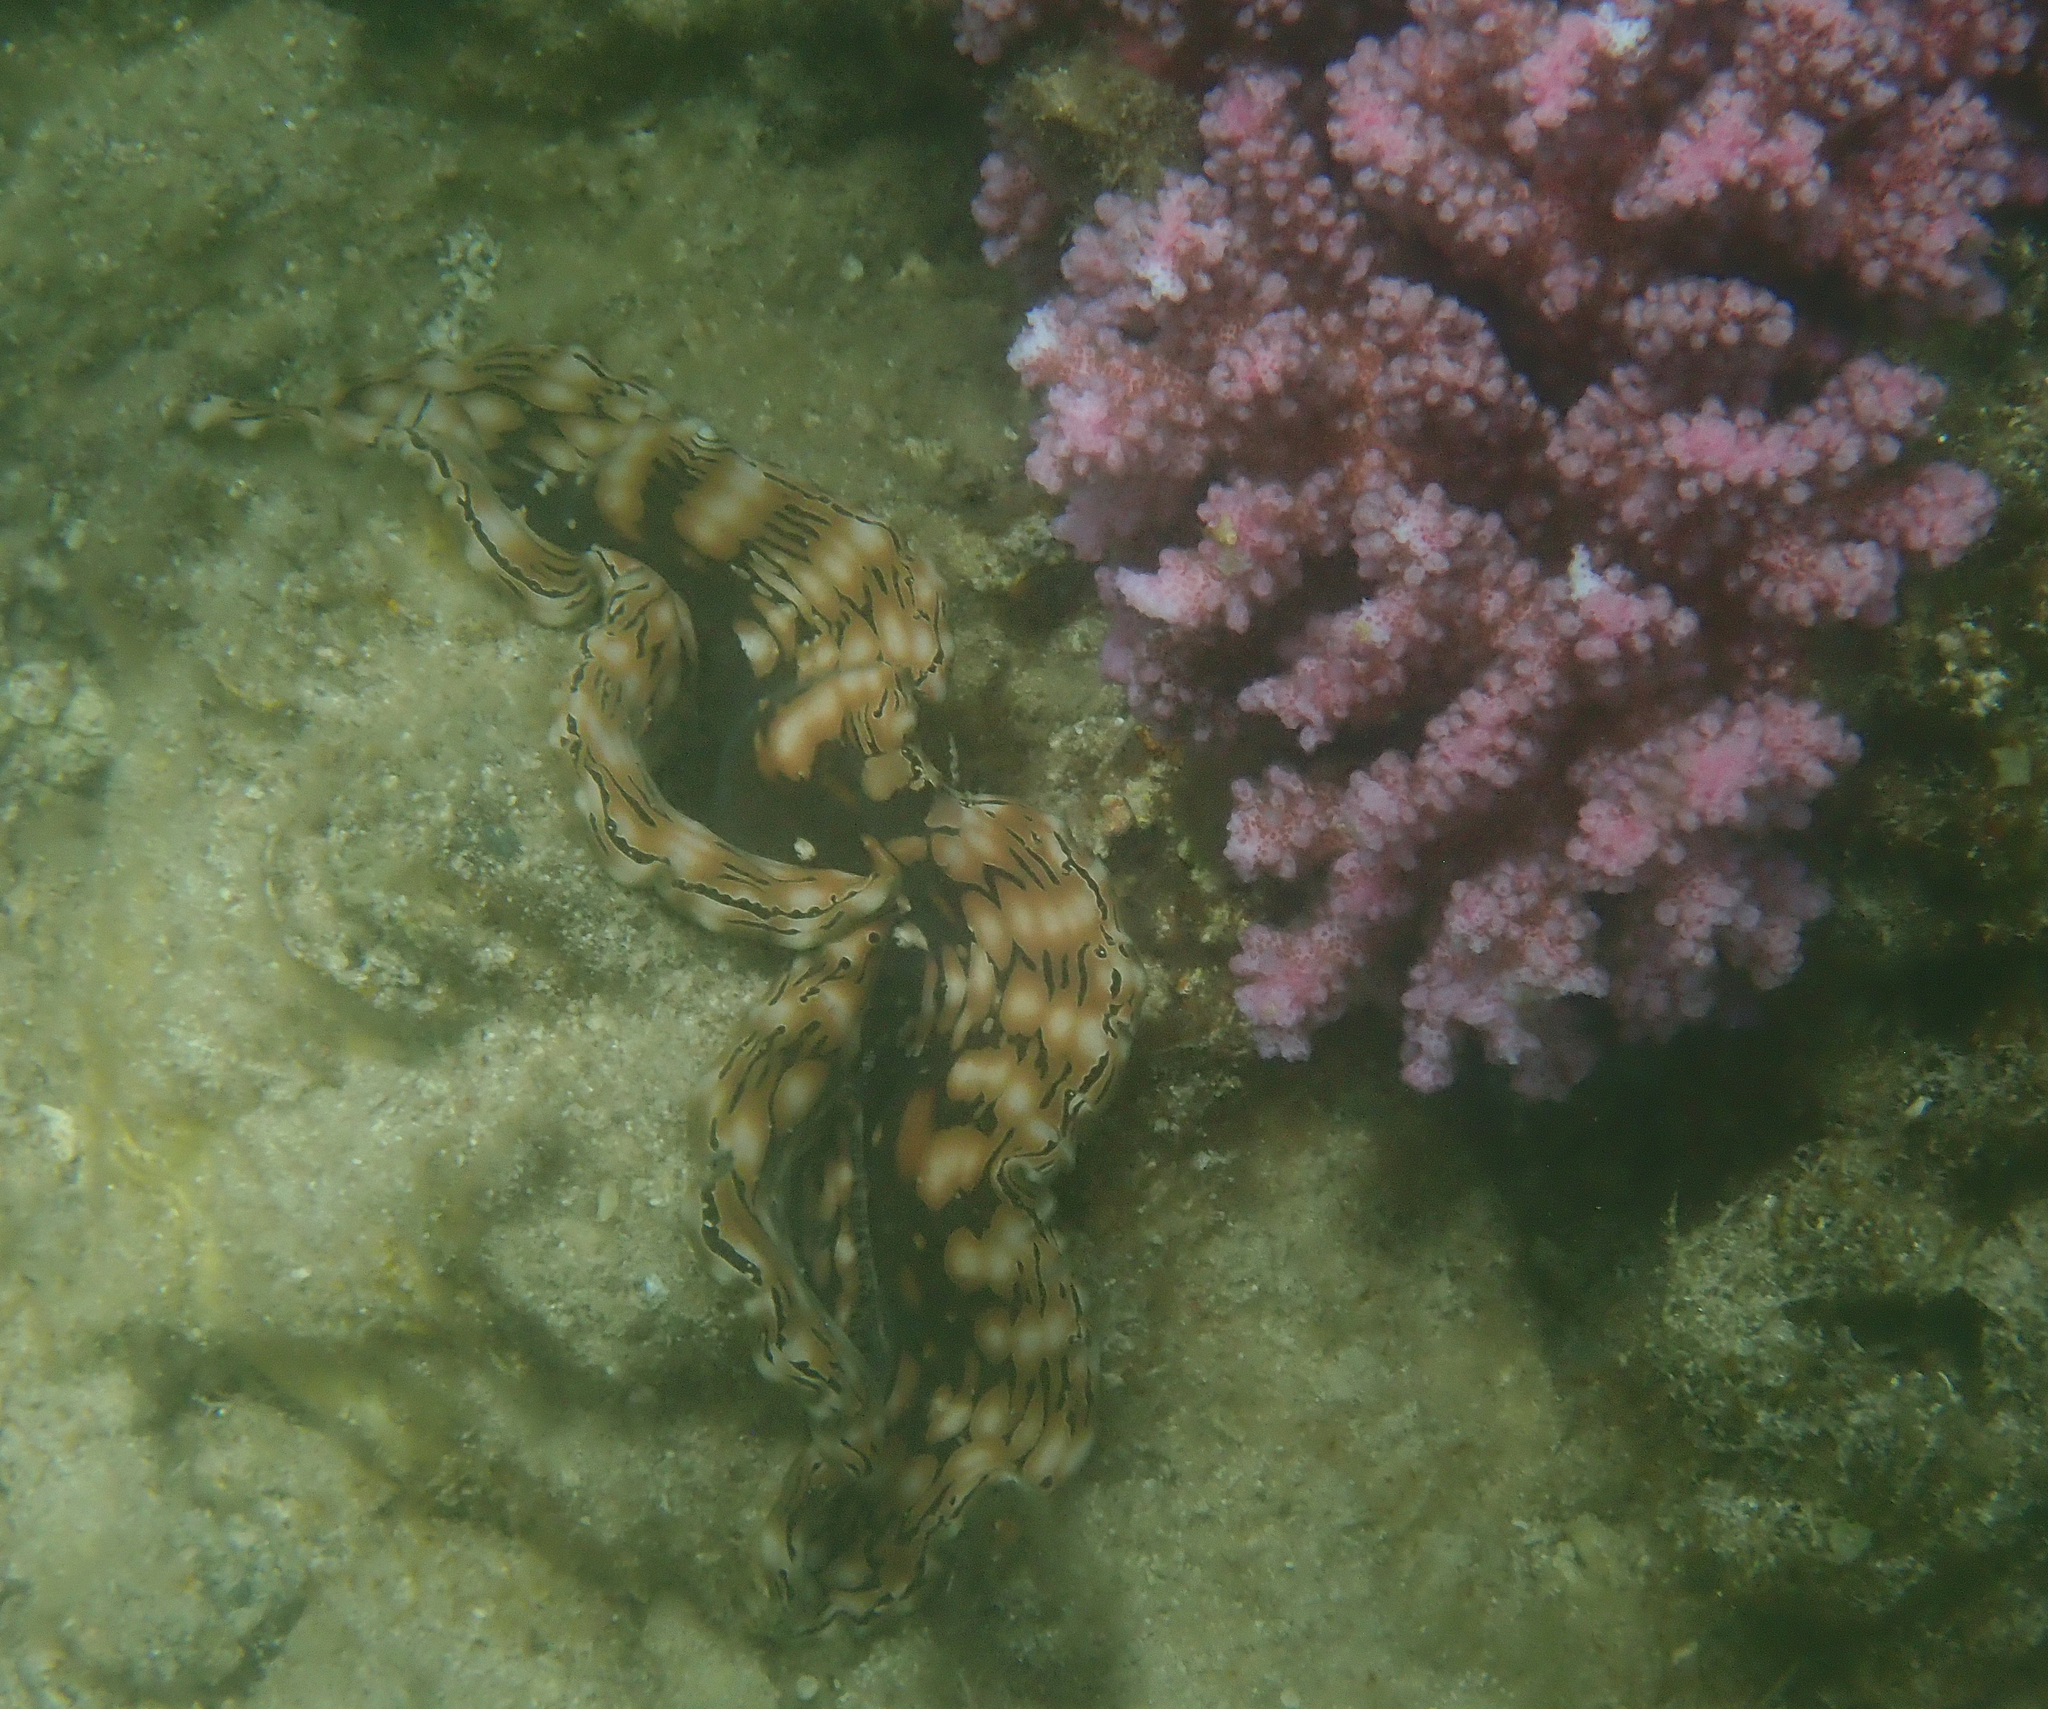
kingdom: Animalia
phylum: Cnidaria
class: Anthozoa
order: Scleractinia
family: Pocilloporidae
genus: Pocillopora
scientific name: Pocillopora verrucosa
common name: Cauliflower coral
